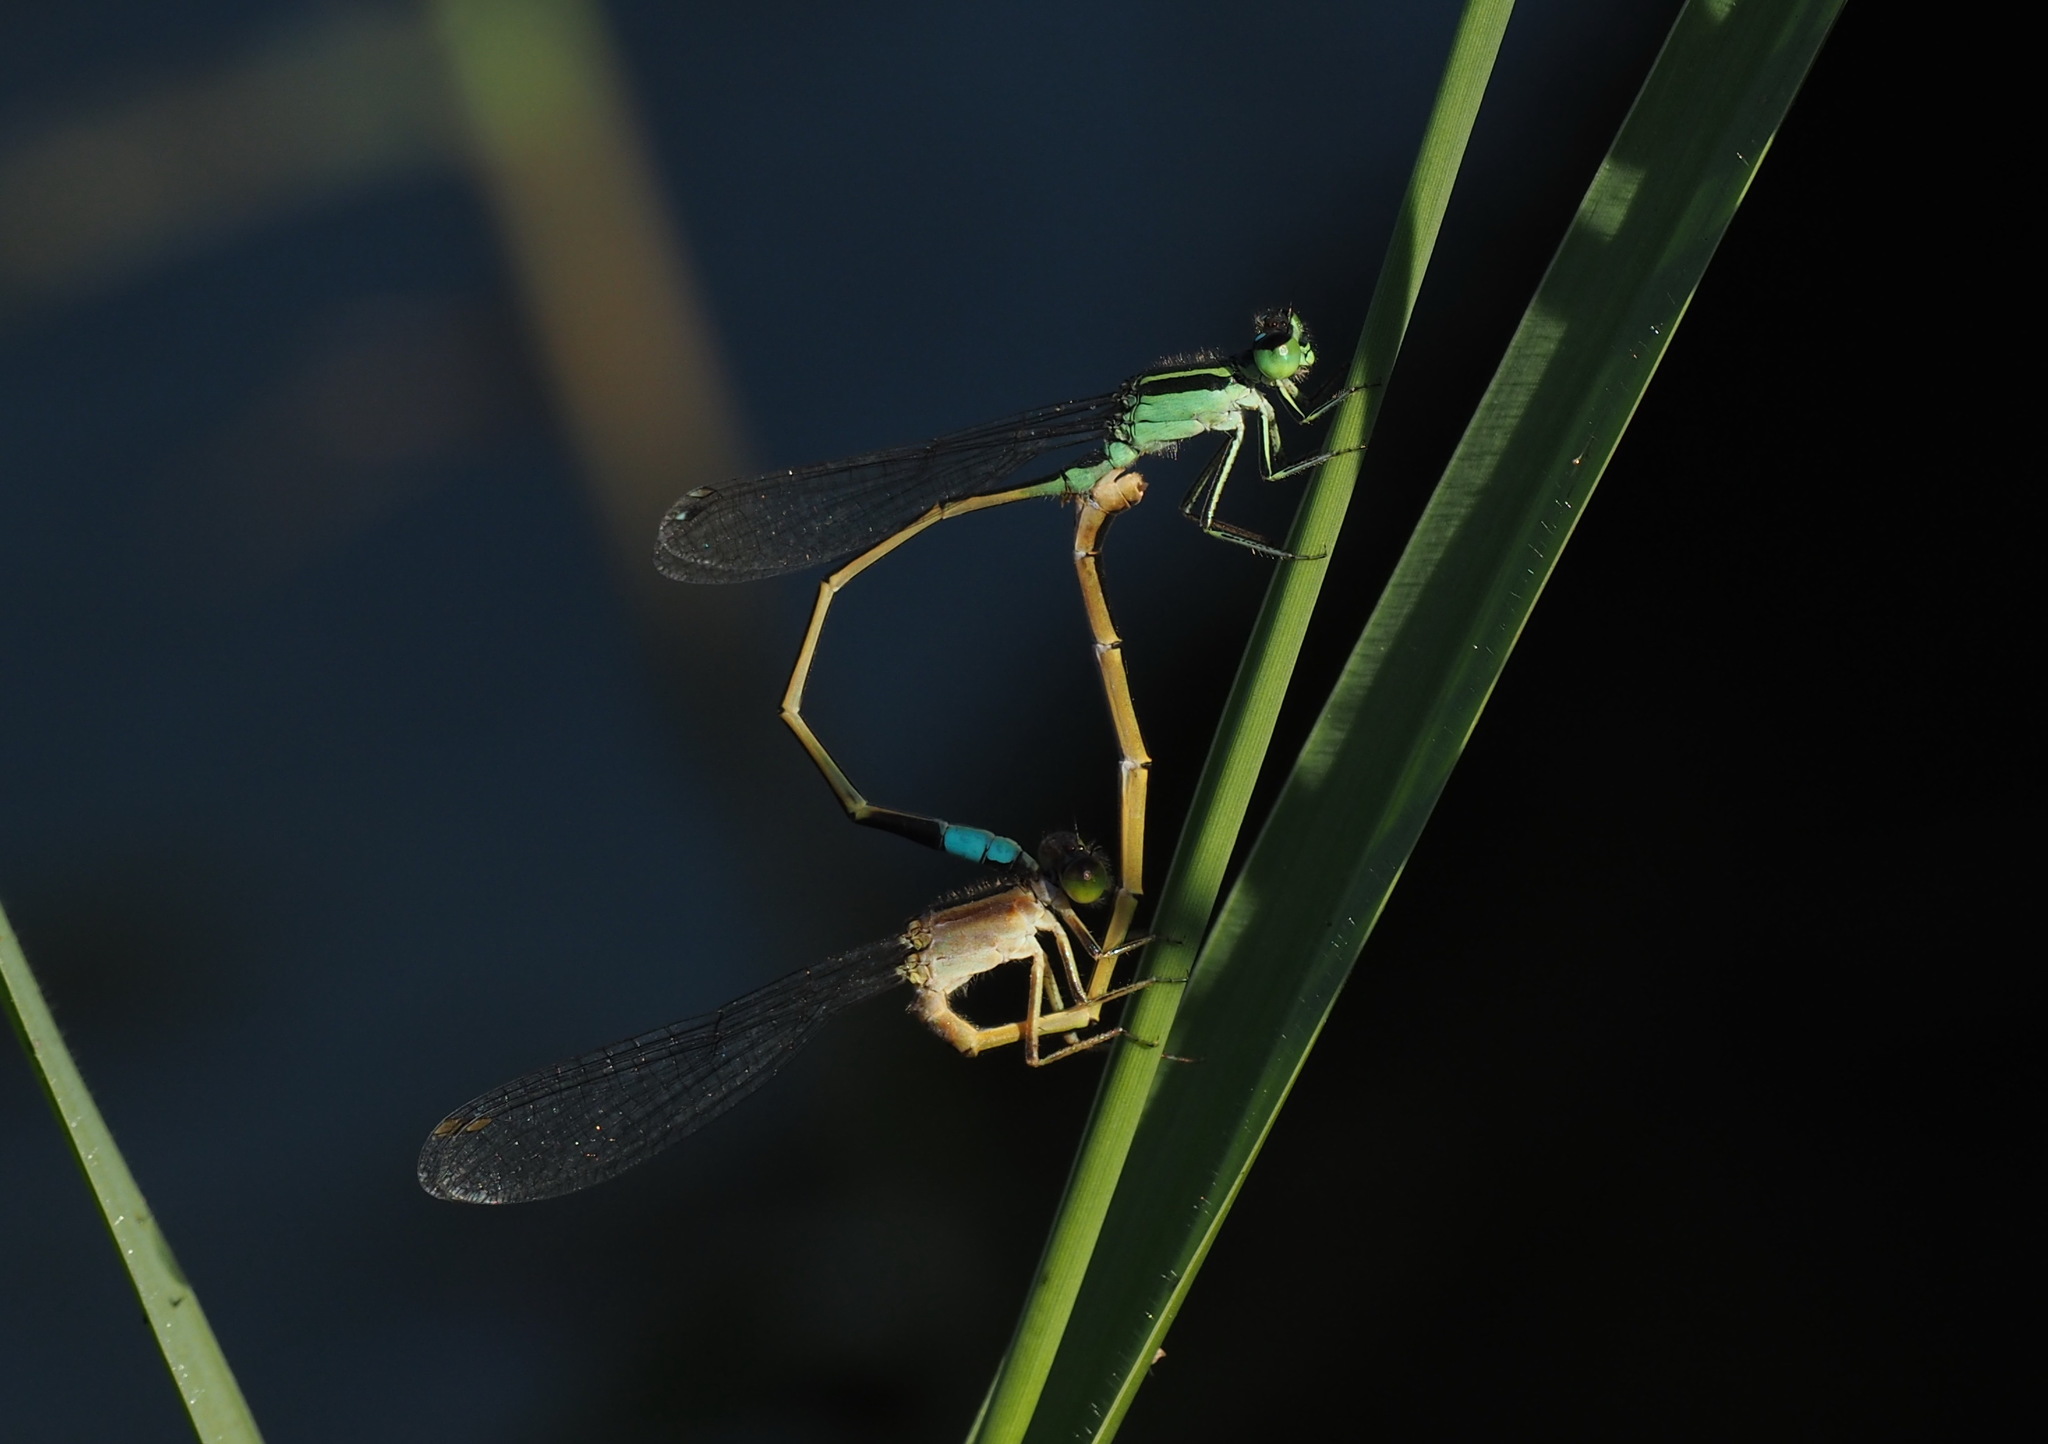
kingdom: Animalia
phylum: Arthropoda
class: Insecta
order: Odonata
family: Coenagrionidae
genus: Ischnura
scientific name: Ischnura senegalensis
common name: Tropical bluetail
